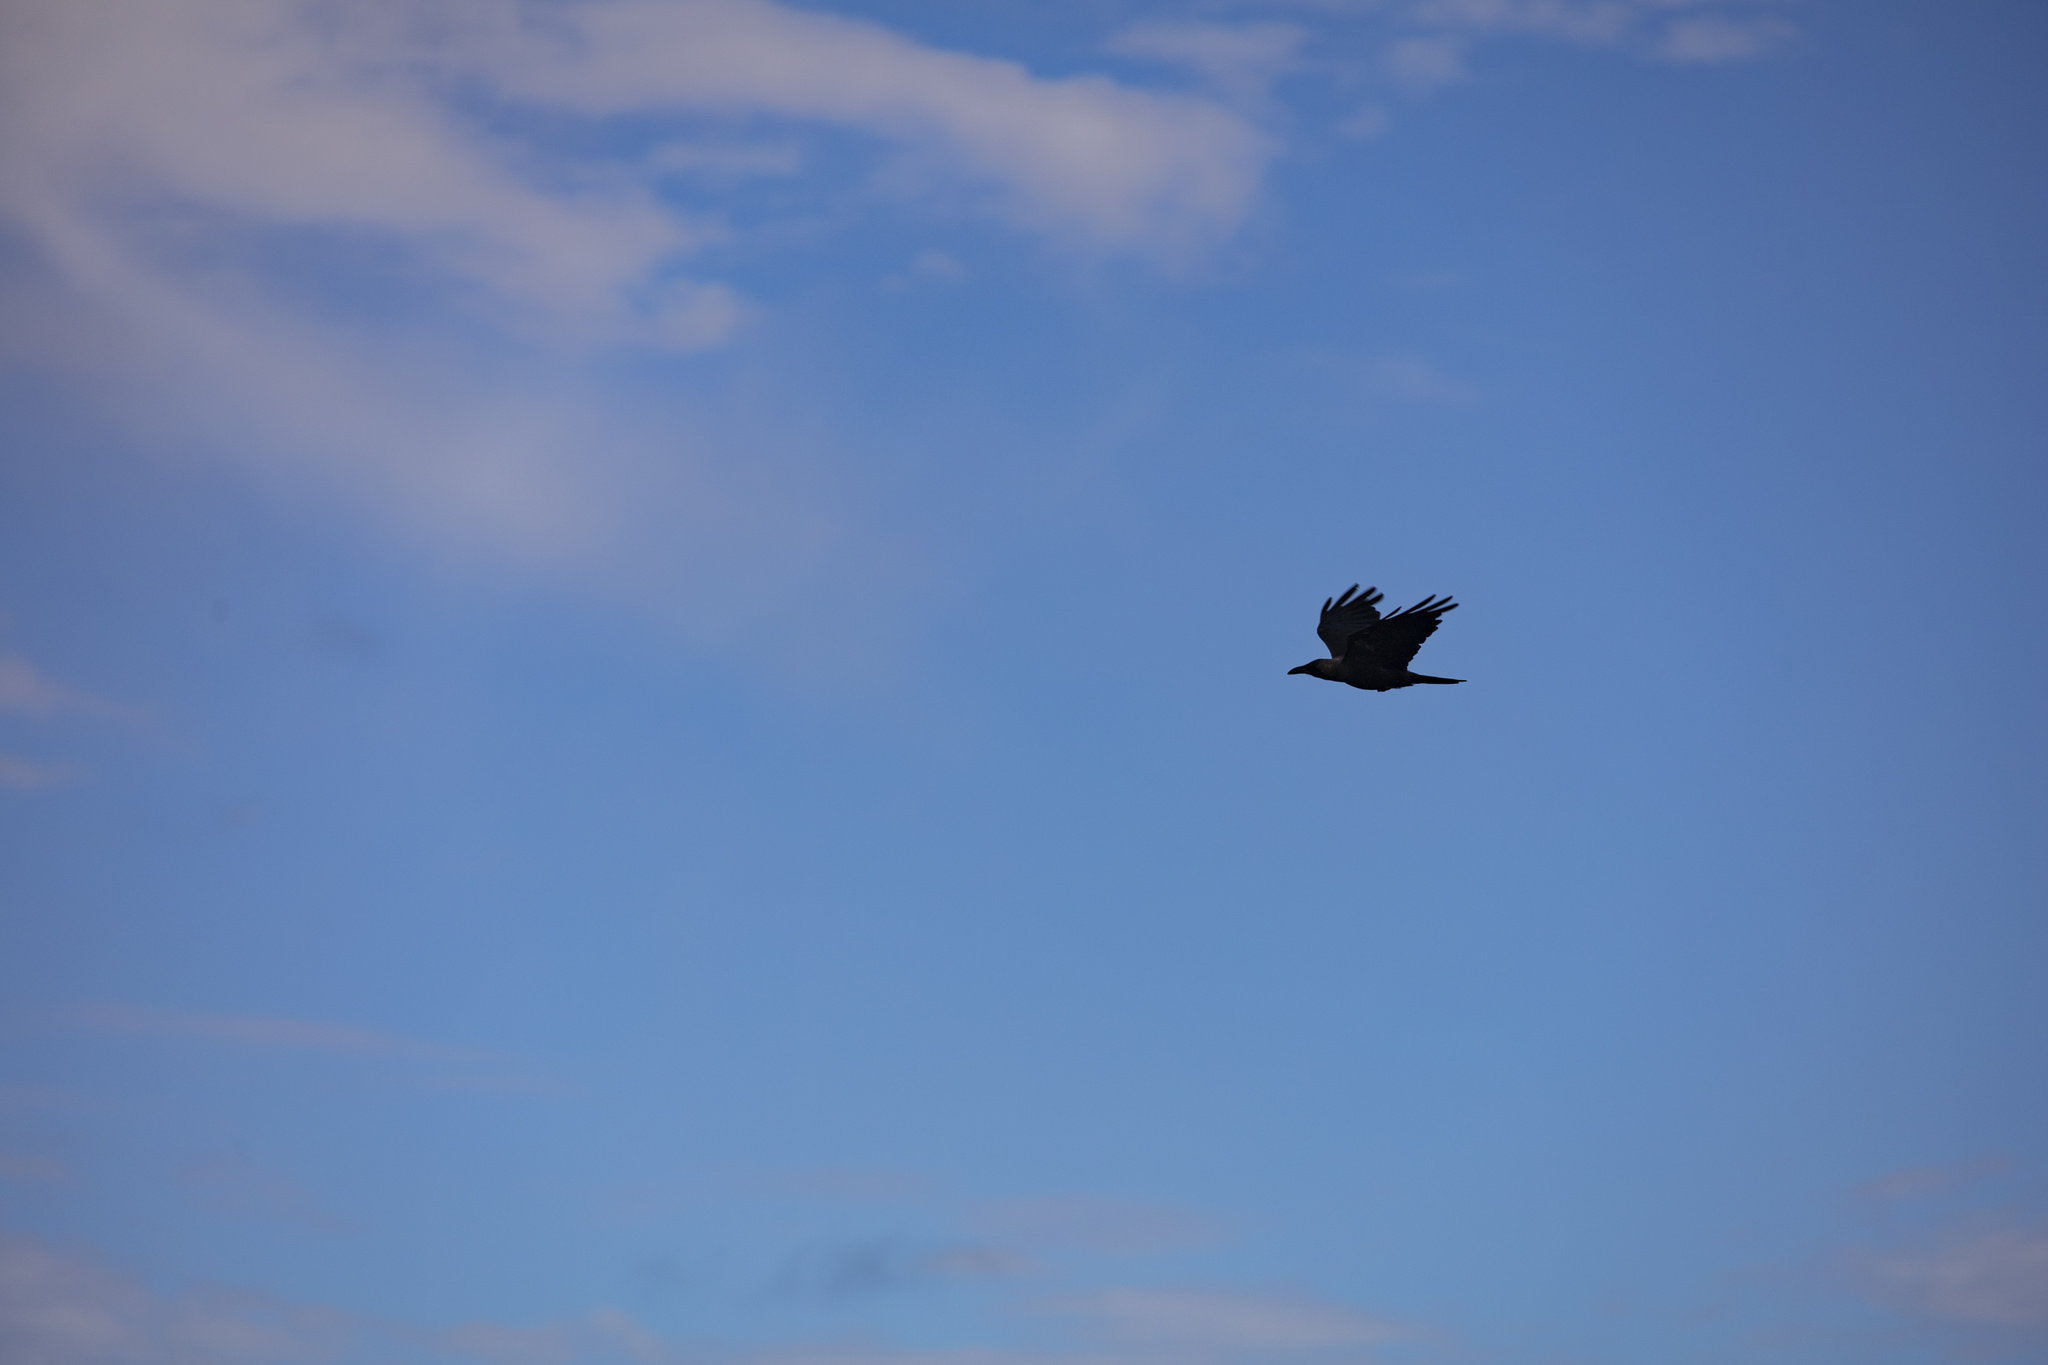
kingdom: Animalia
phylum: Chordata
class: Aves
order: Passeriformes
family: Corvidae
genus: Corvus
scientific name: Corvus splendens
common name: House crow
